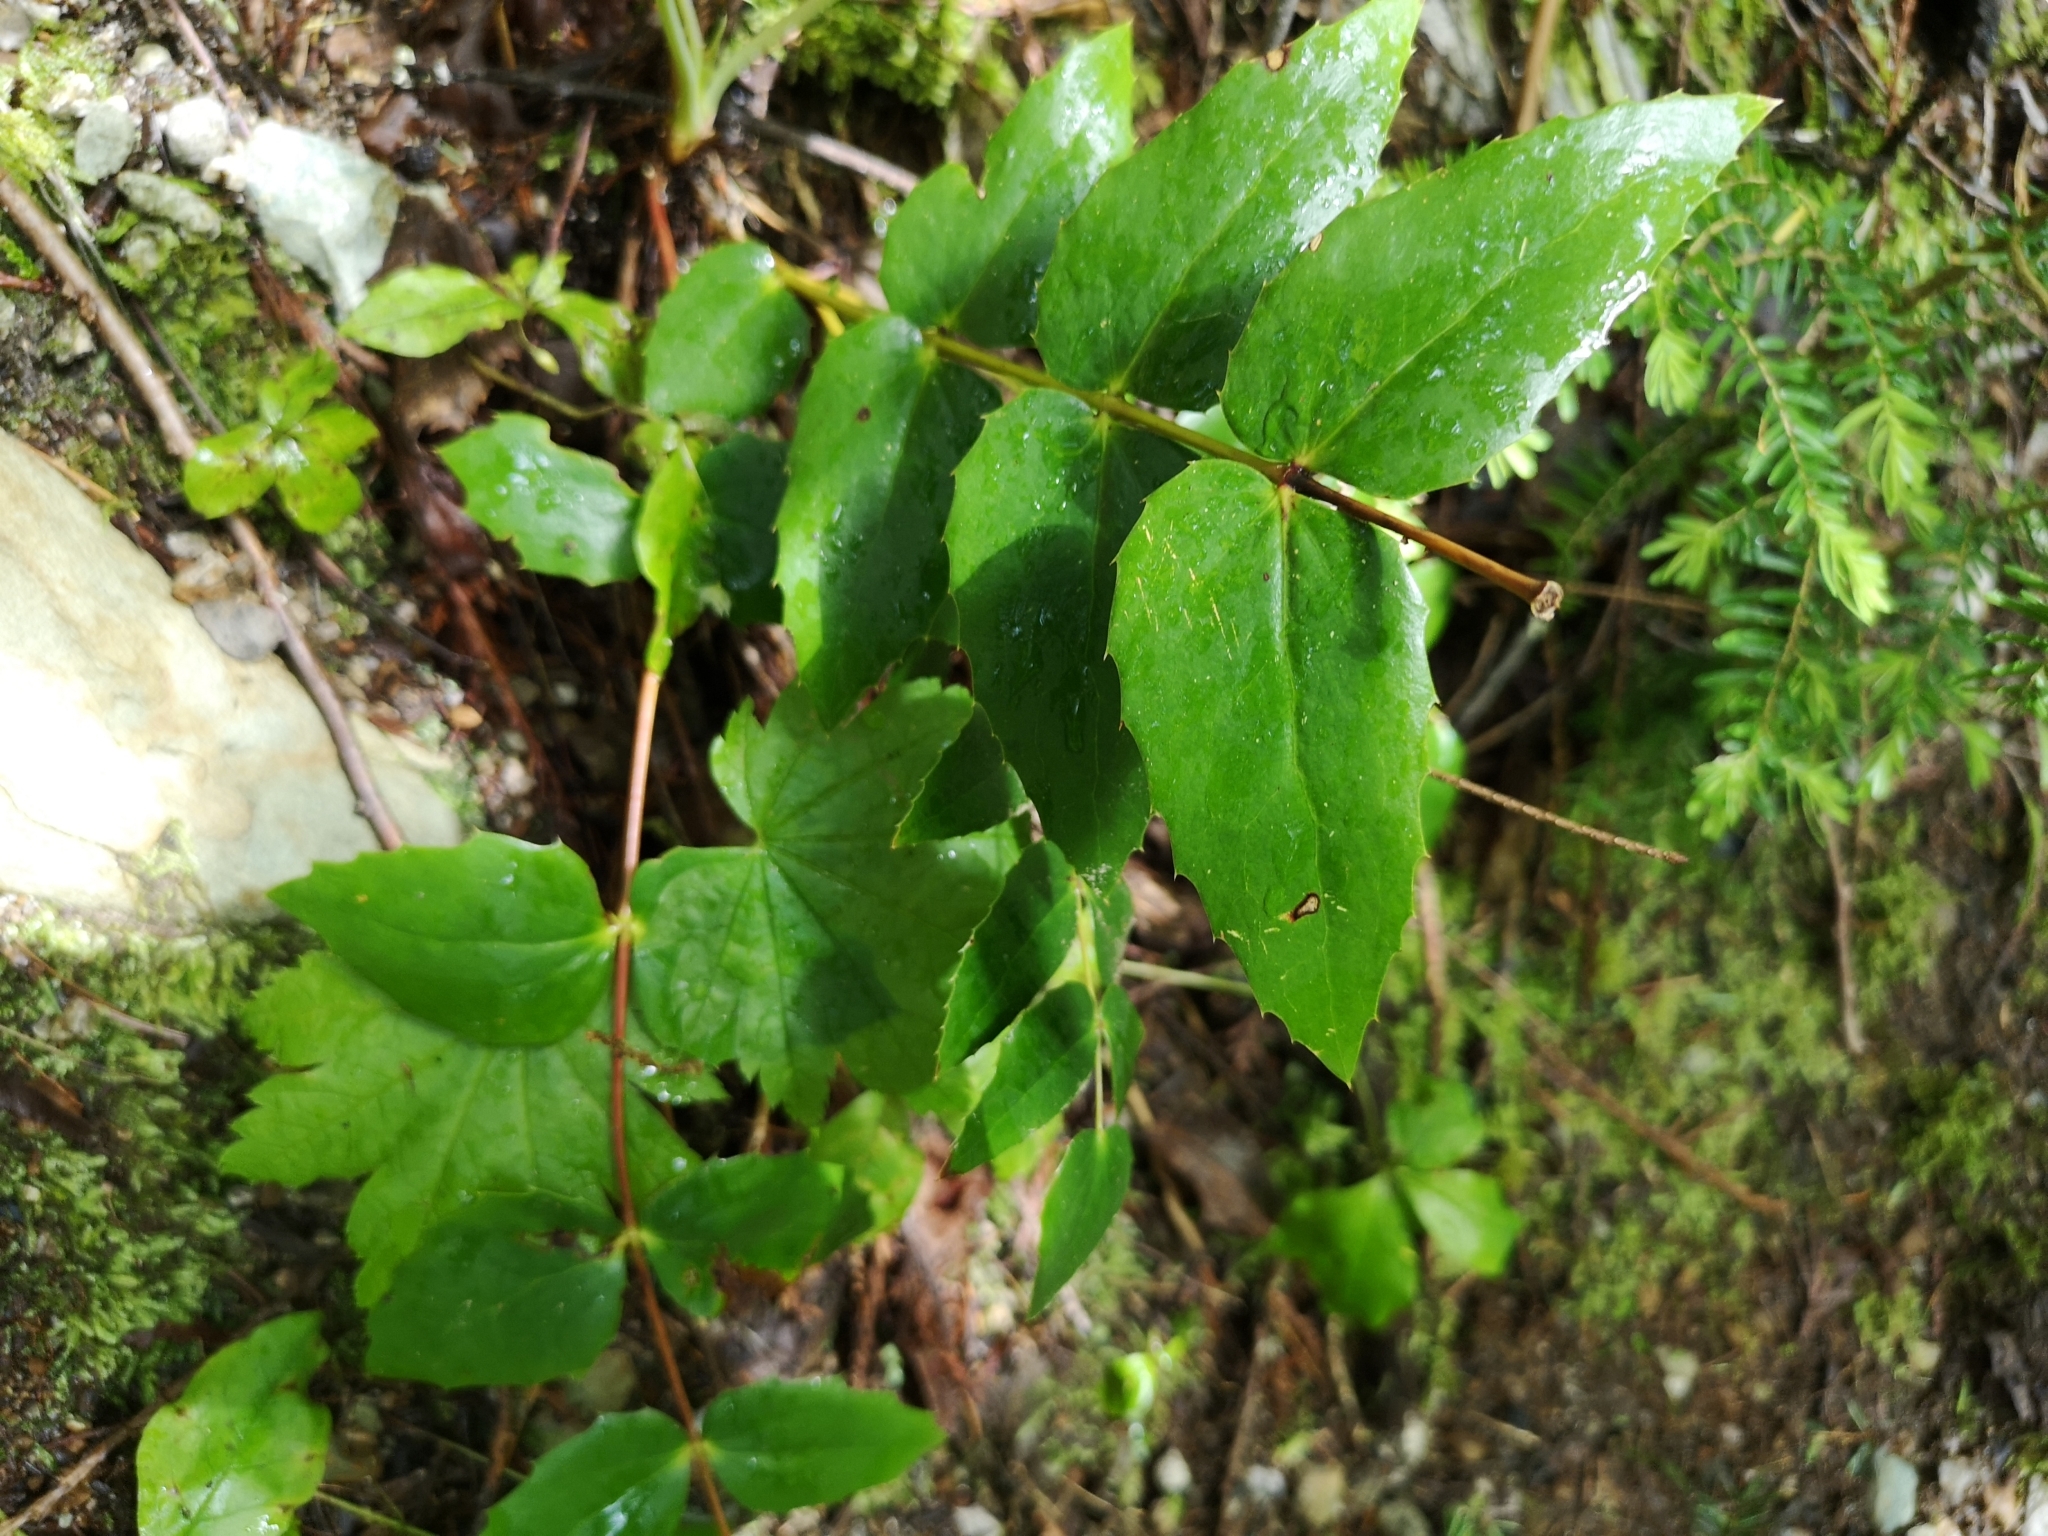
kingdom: Plantae
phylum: Tracheophyta
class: Magnoliopsida
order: Ranunculales
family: Berberidaceae
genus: Mahonia
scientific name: Mahonia nervosa
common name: Cascade oregon-grape
